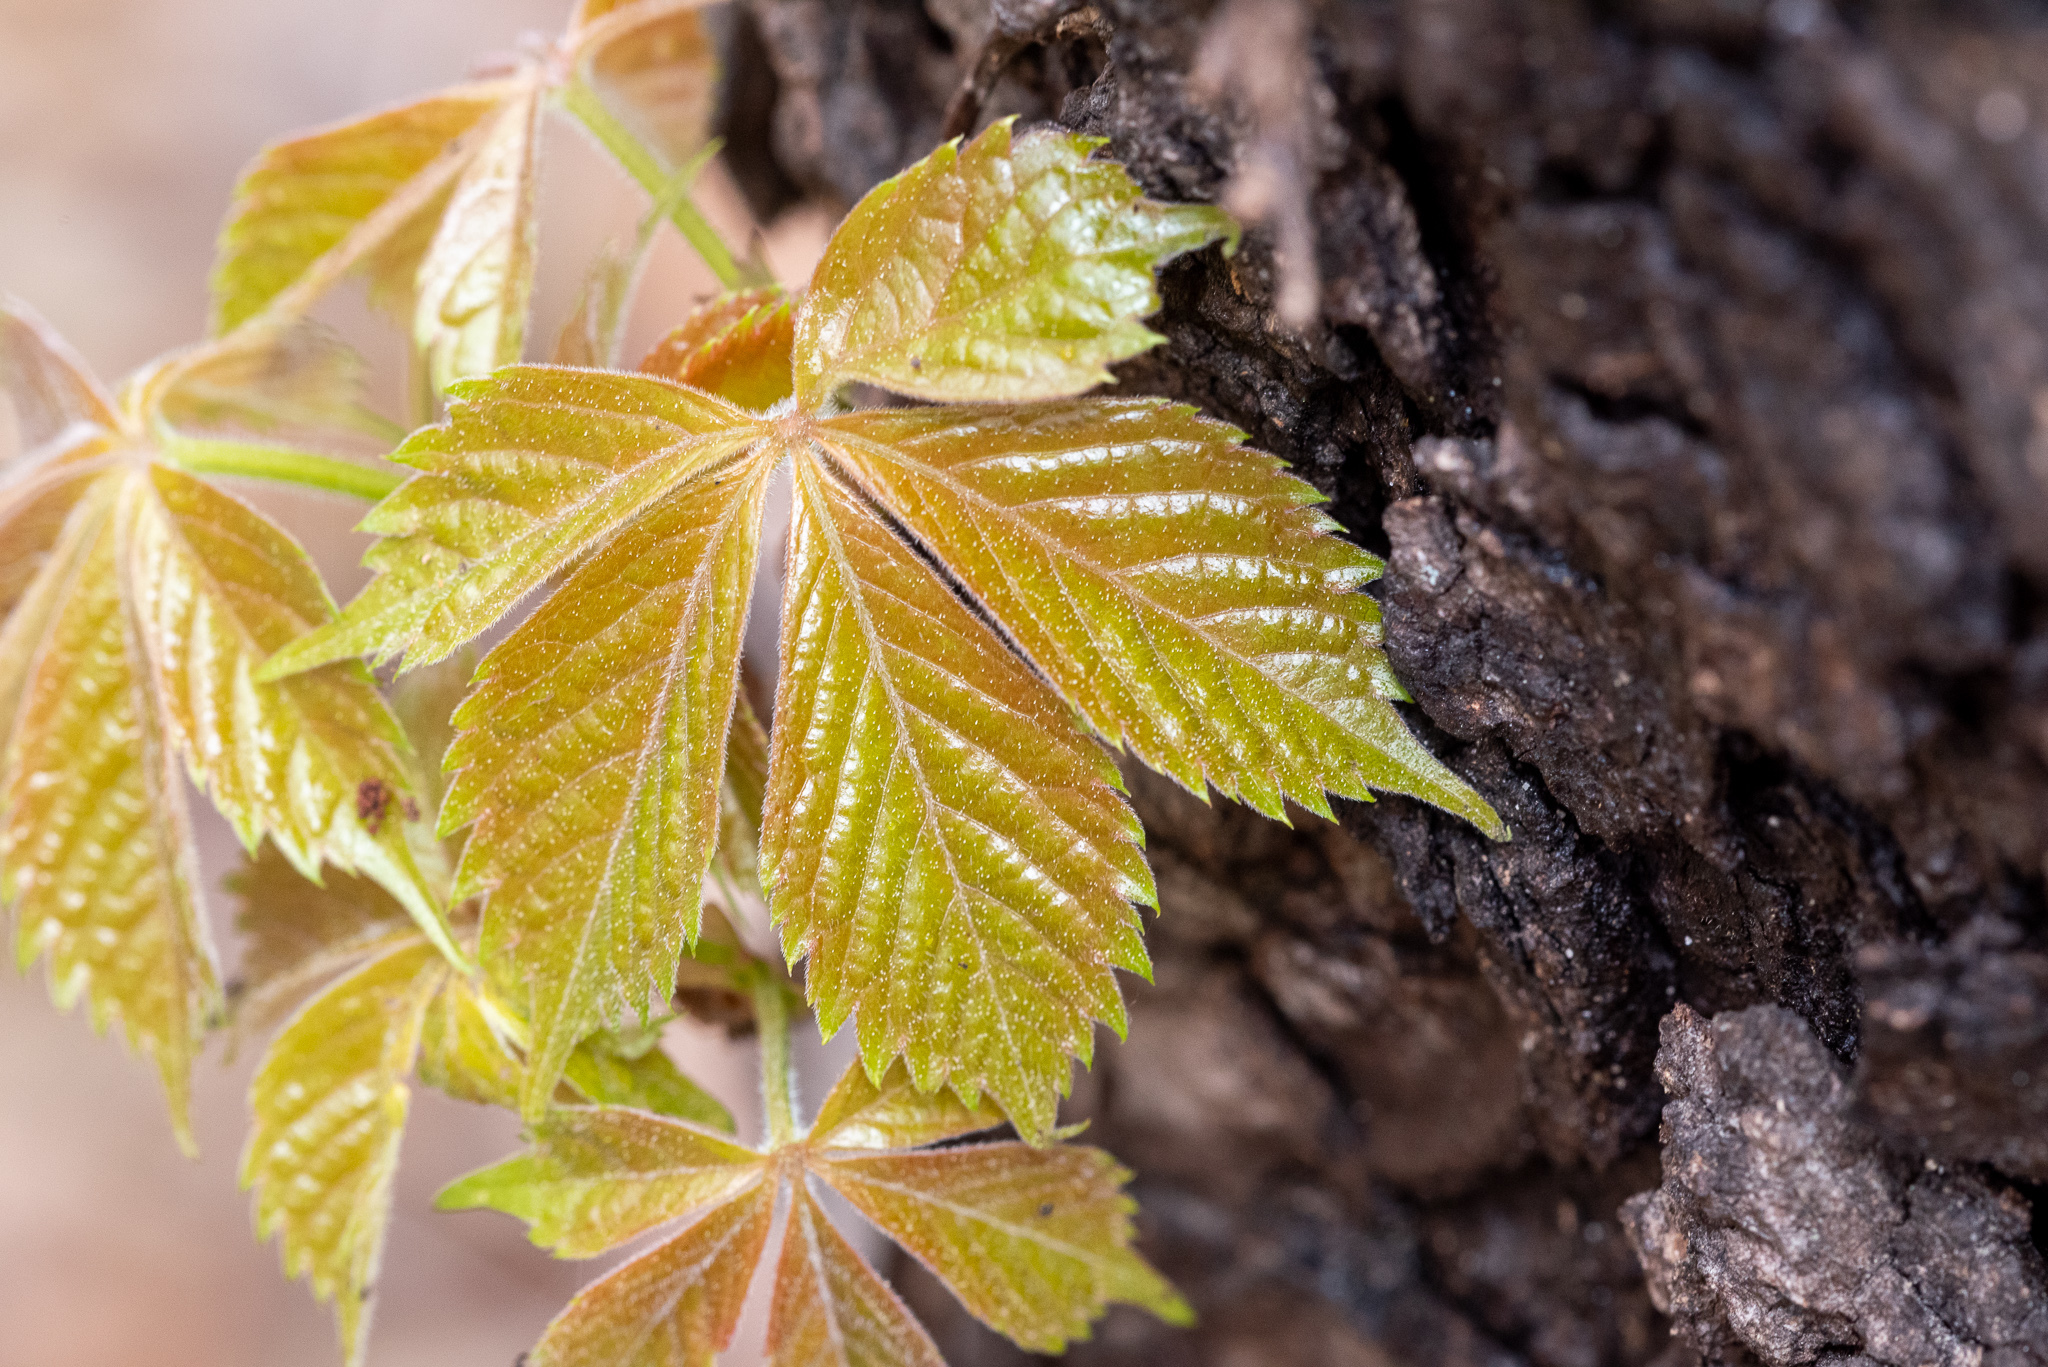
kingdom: Plantae
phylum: Tracheophyta
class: Magnoliopsida
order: Vitales
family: Vitaceae
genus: Parthenocissus
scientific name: Parthenocissus quinquefolia
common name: Virginia-creeper
